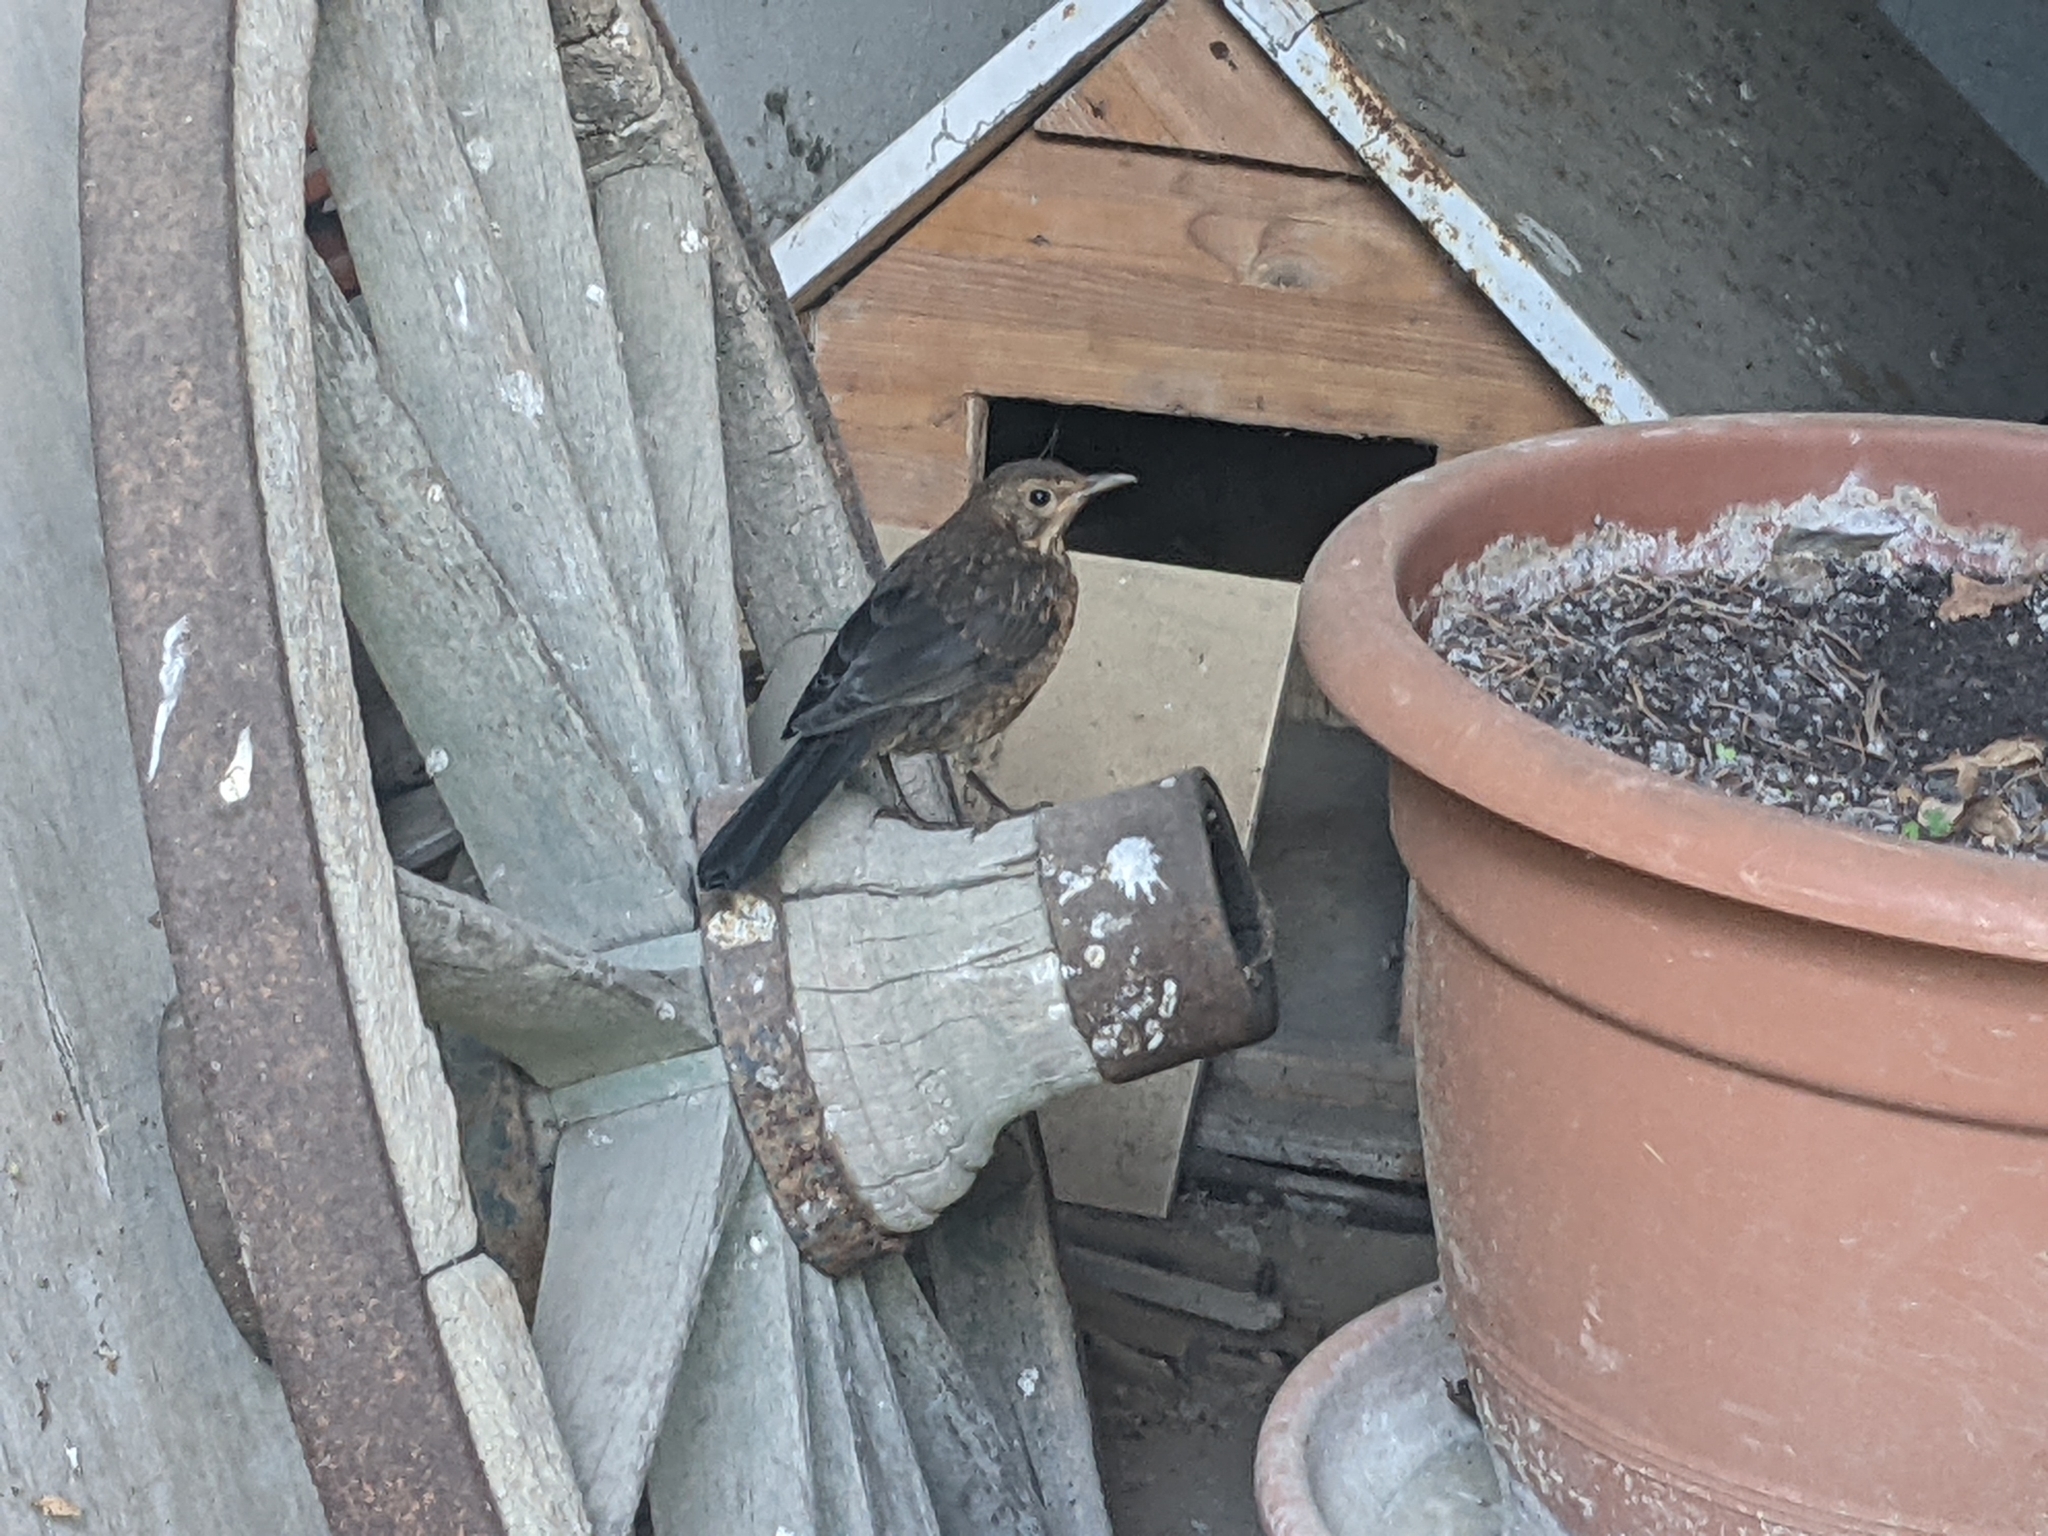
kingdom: Animalia
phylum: Chordata
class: Aves
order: Passeriformes
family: Turdidae
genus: Turdus
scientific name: Turdus merula
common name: Common blackbird
